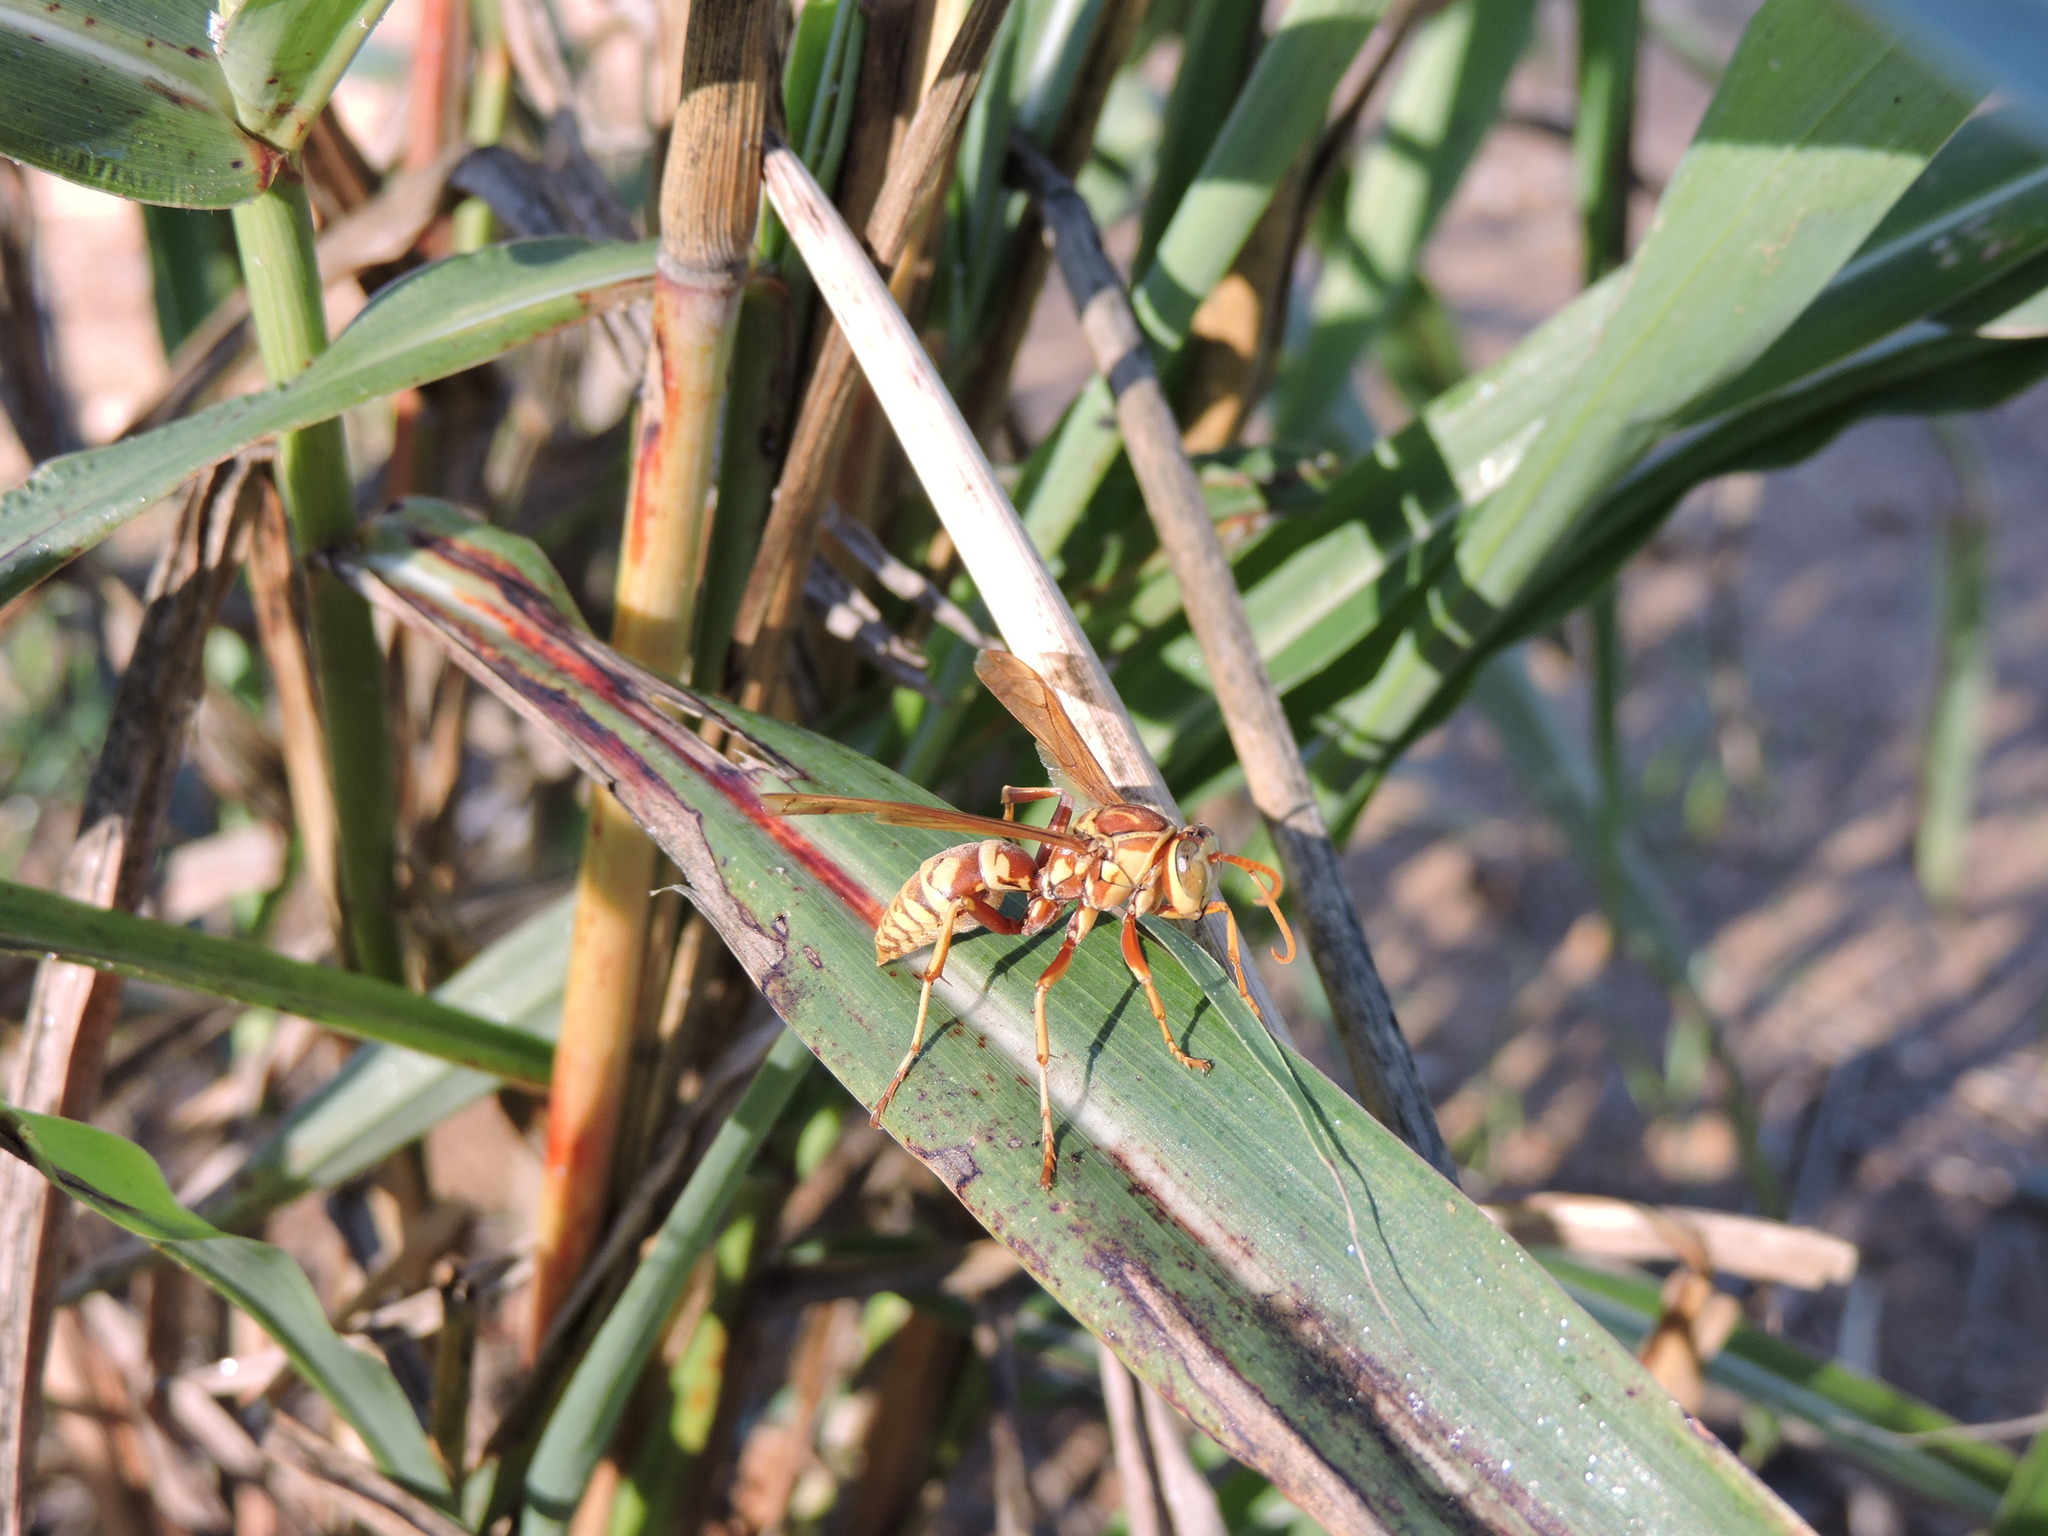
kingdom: Animalia
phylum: Arthropoda
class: Insecta
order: Hymenoptera
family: Eumenidae
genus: Polistes
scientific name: Polistes apachus
